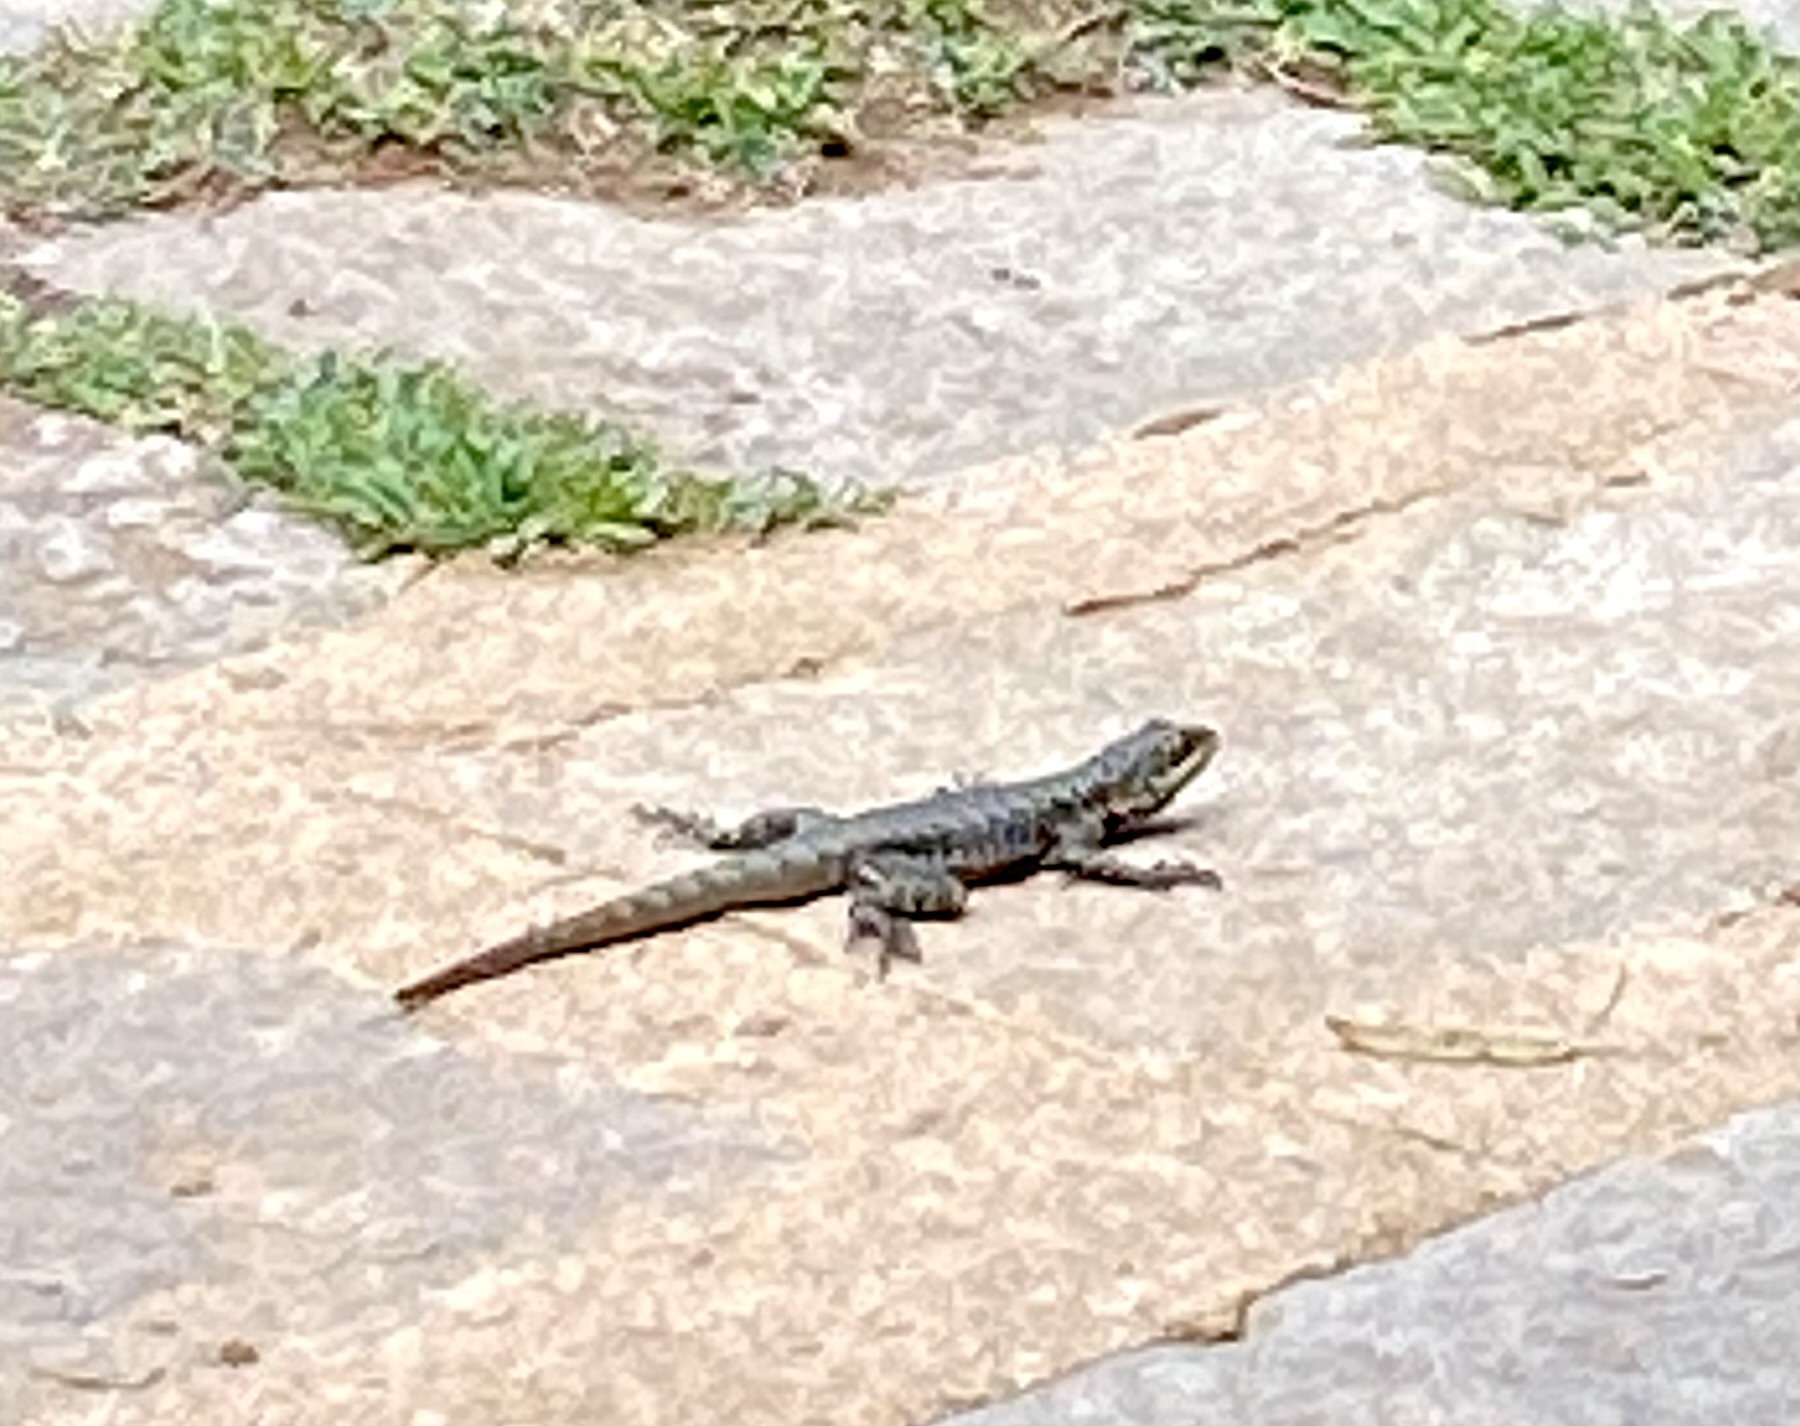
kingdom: Animalia
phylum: Chordata
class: Squamata
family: Tropiduridae
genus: Tropidurus
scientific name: Tropidurus torquatus
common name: Amazon lava lizard
